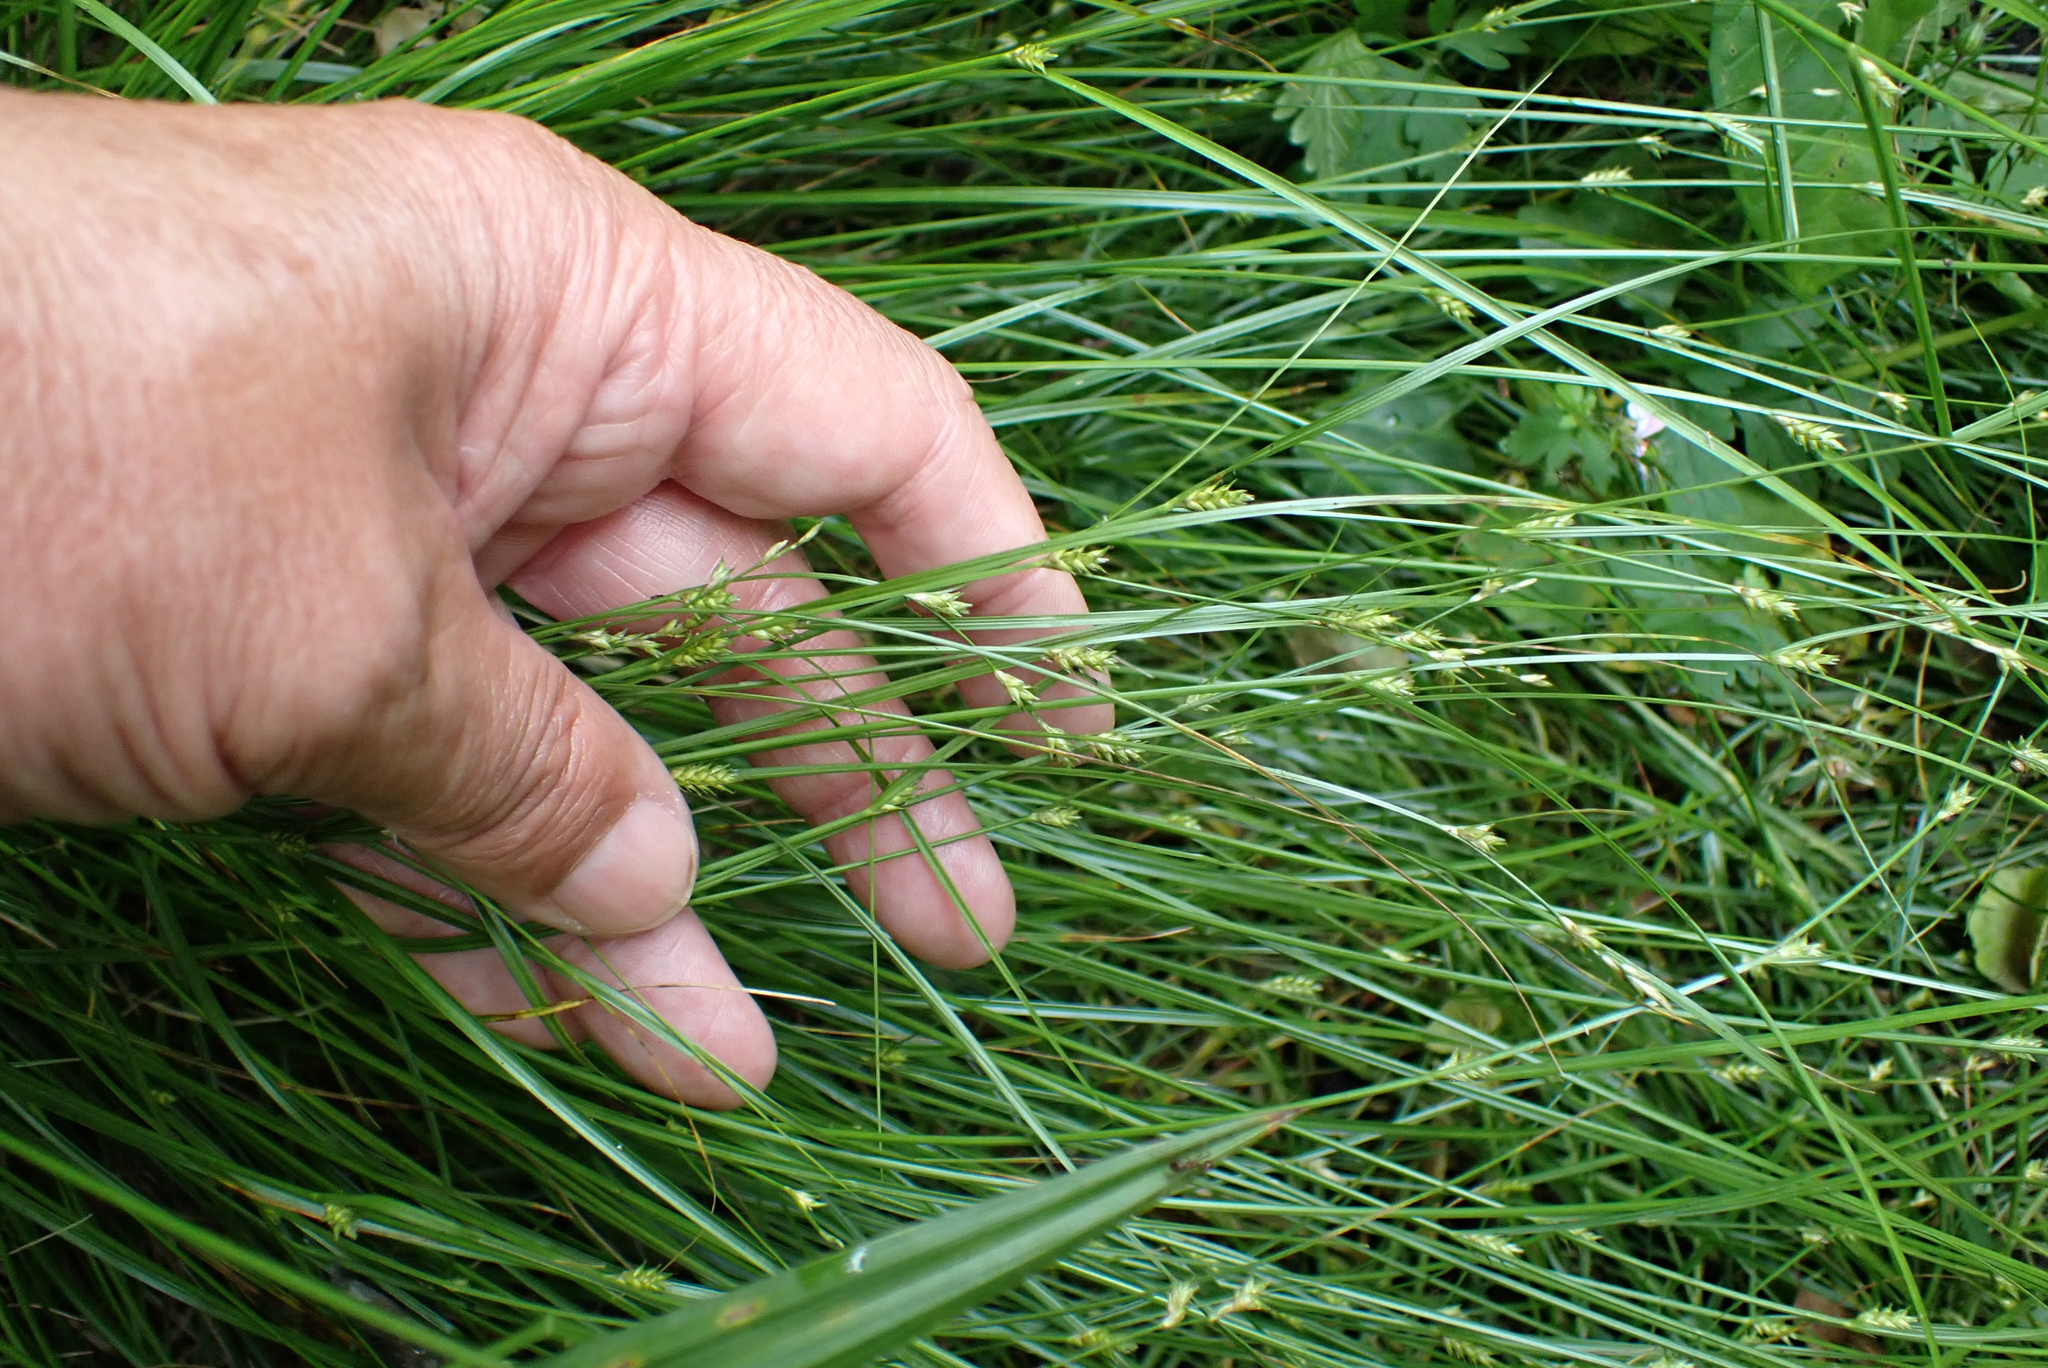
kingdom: Plantae
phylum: Tracheophyta
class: Liliopsida
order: Poales
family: Cyperaceae
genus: Carex
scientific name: Carex remota
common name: Remote sedge
